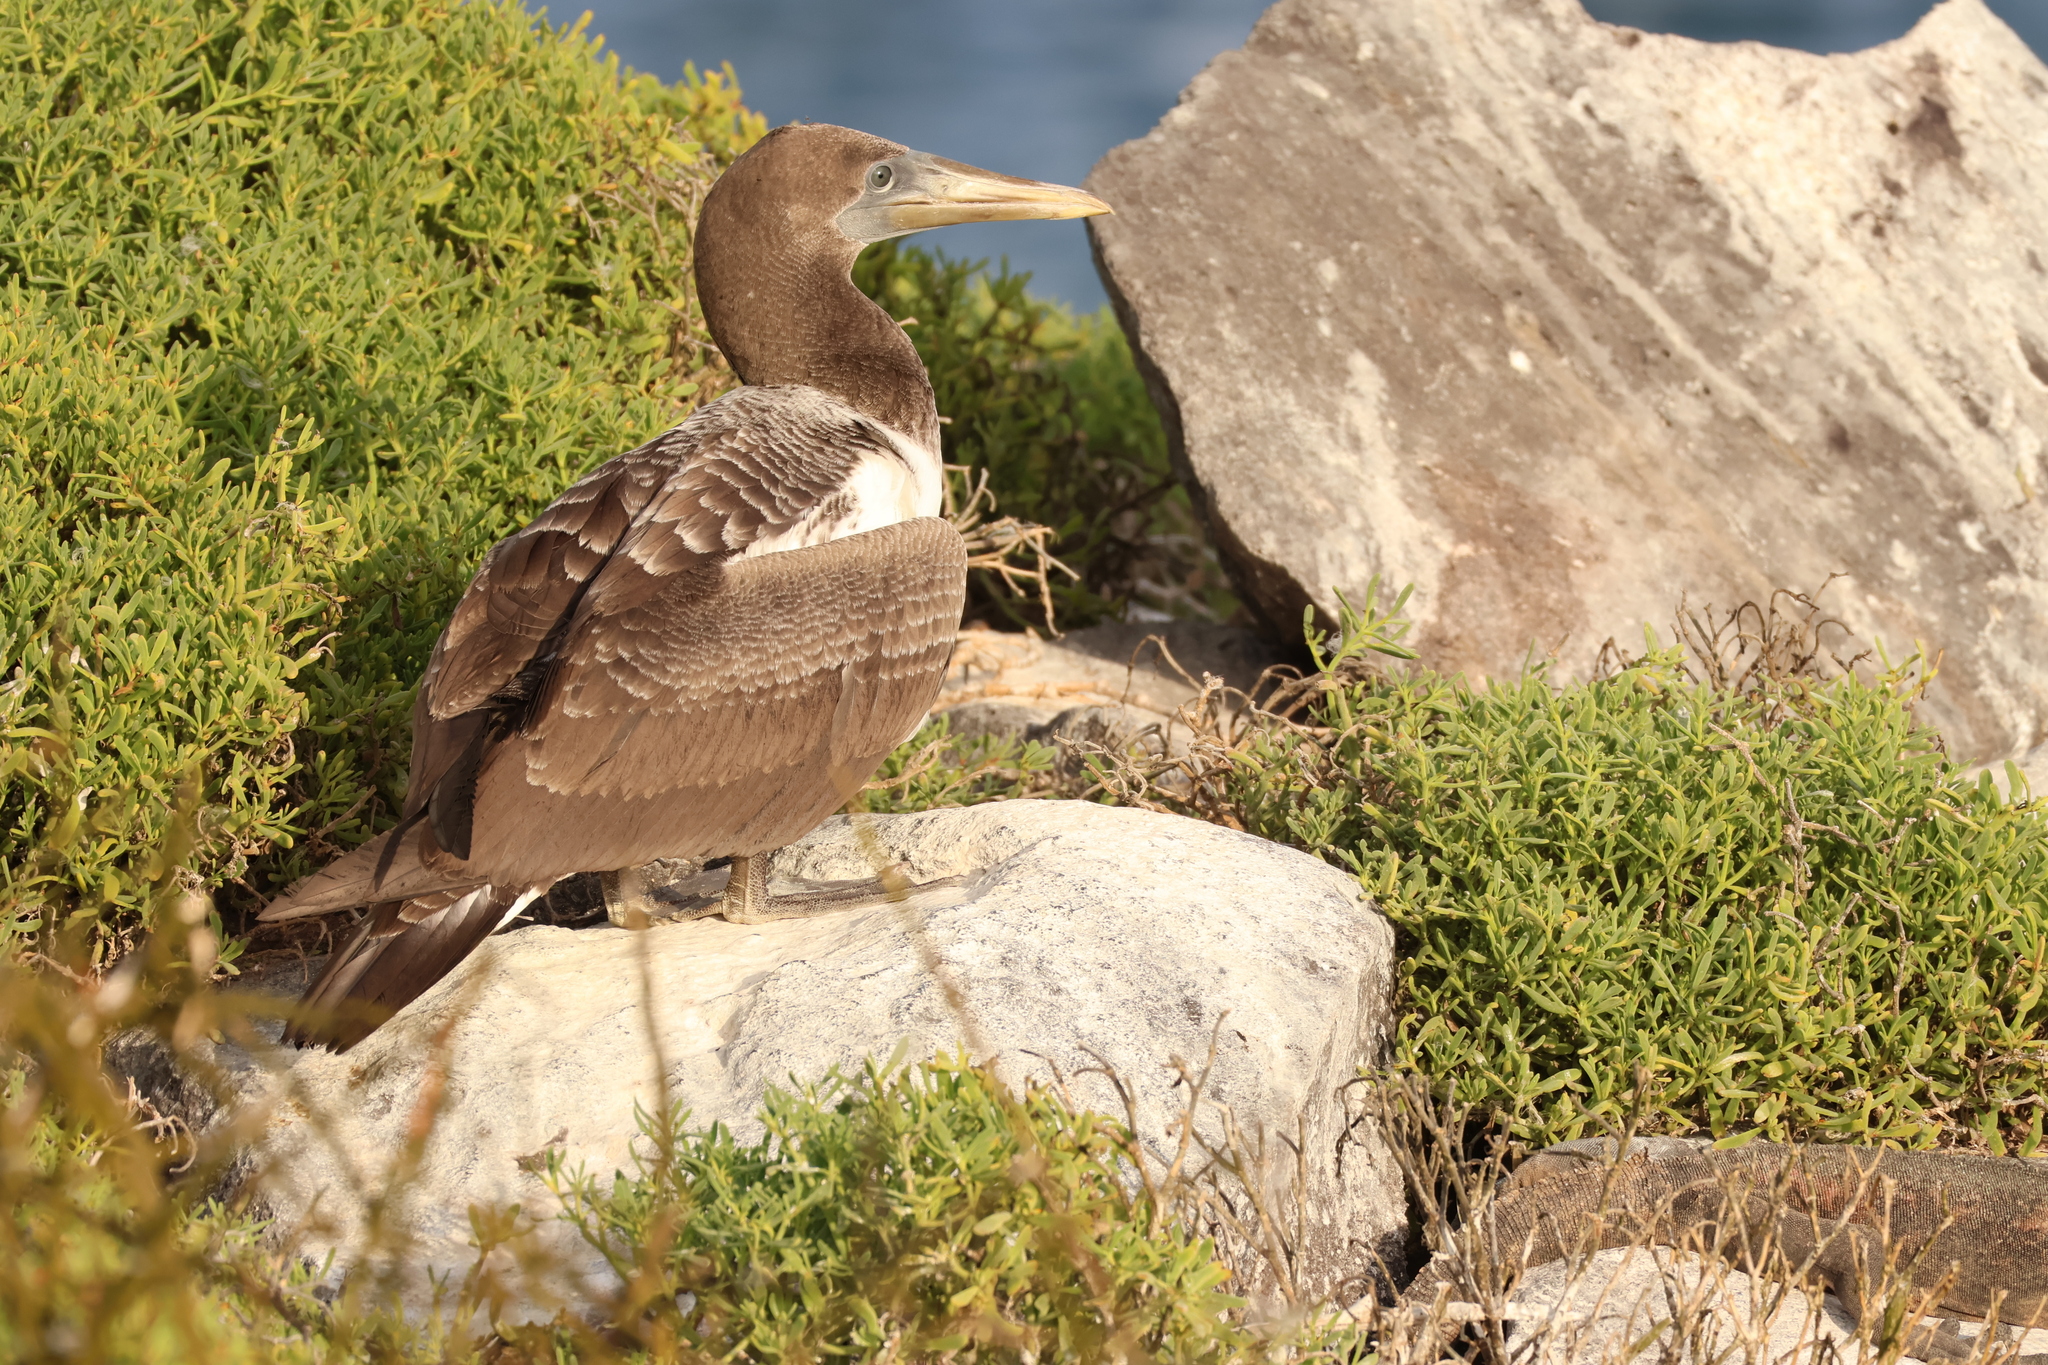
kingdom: Animalia
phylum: Chordata
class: Aves
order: Suliformes
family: Sulidae
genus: Sula
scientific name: Sula granti
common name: Nazca booby
